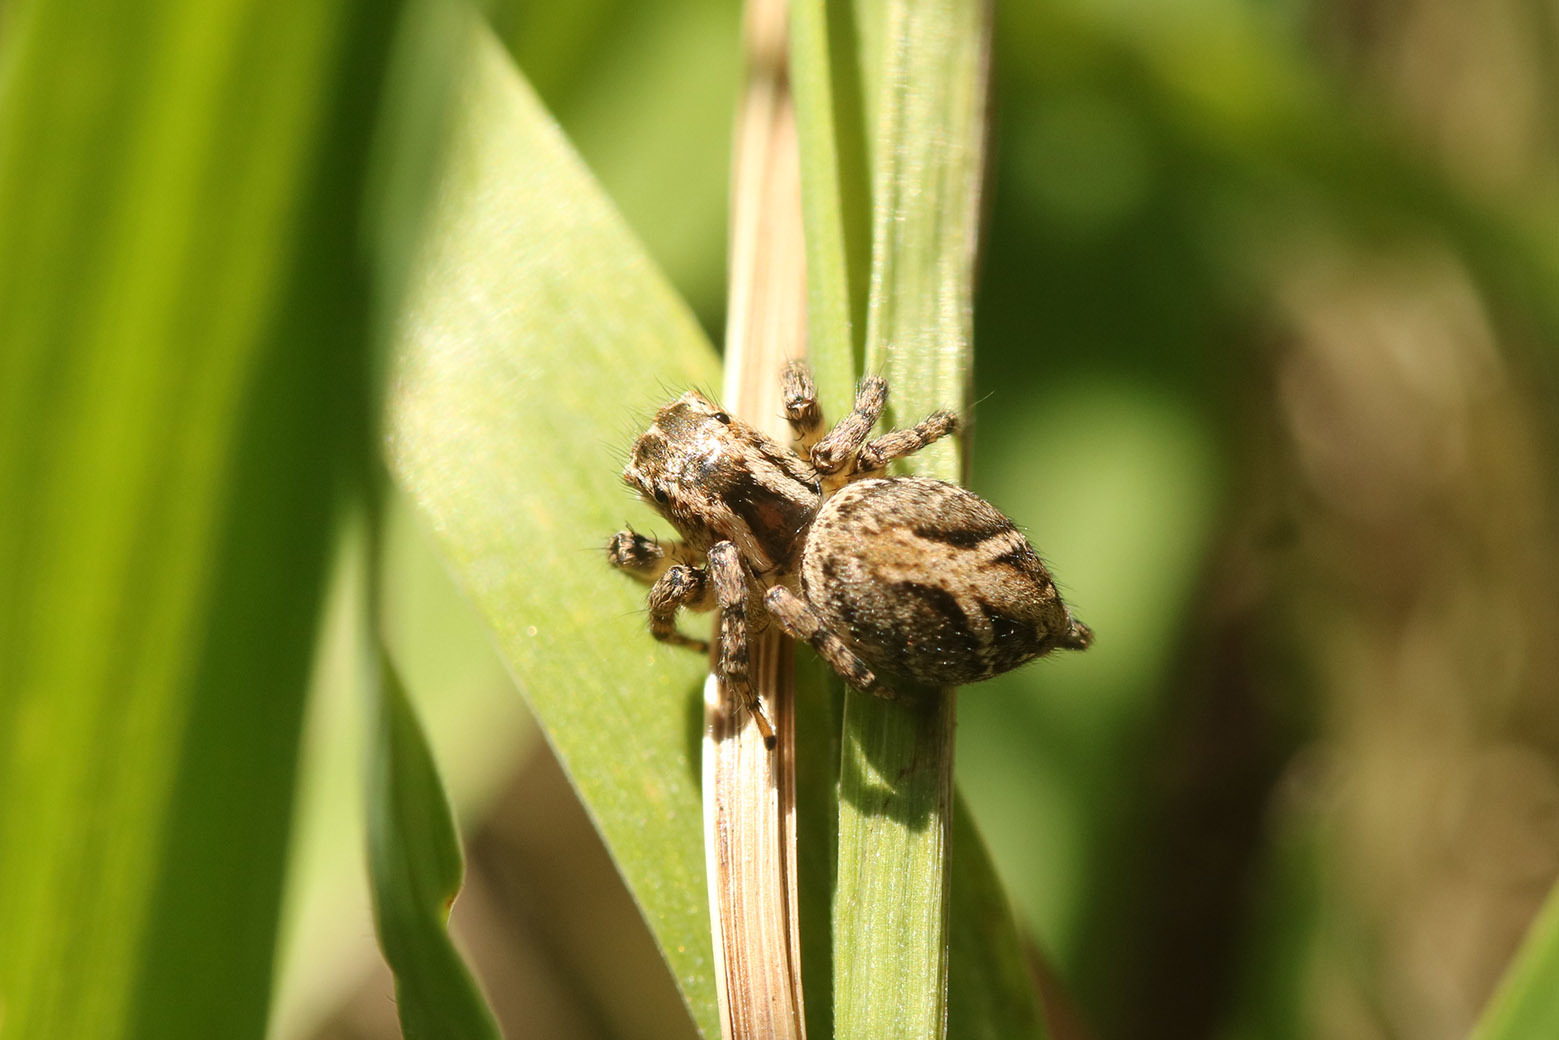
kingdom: Animalia
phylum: Arthropoda
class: Arachnida
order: Araneae
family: Salticidae
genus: Aphirape
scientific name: Aphirape
